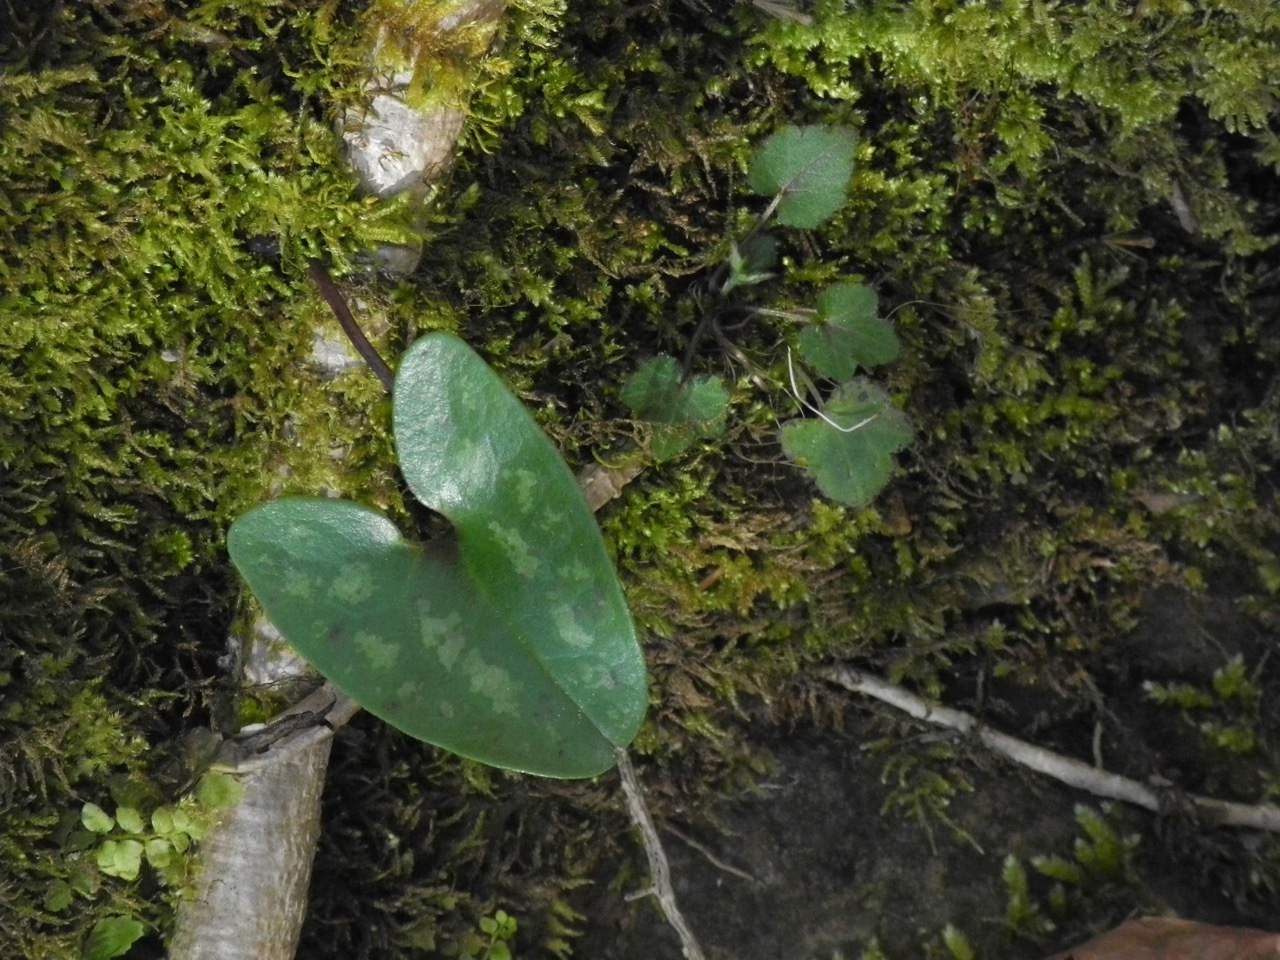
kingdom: Plantae
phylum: Tracheophyta
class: Magnoliopsida
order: Piperales
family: Aristolochiaceae
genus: Hexastylis
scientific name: Hexastylis arifolia
